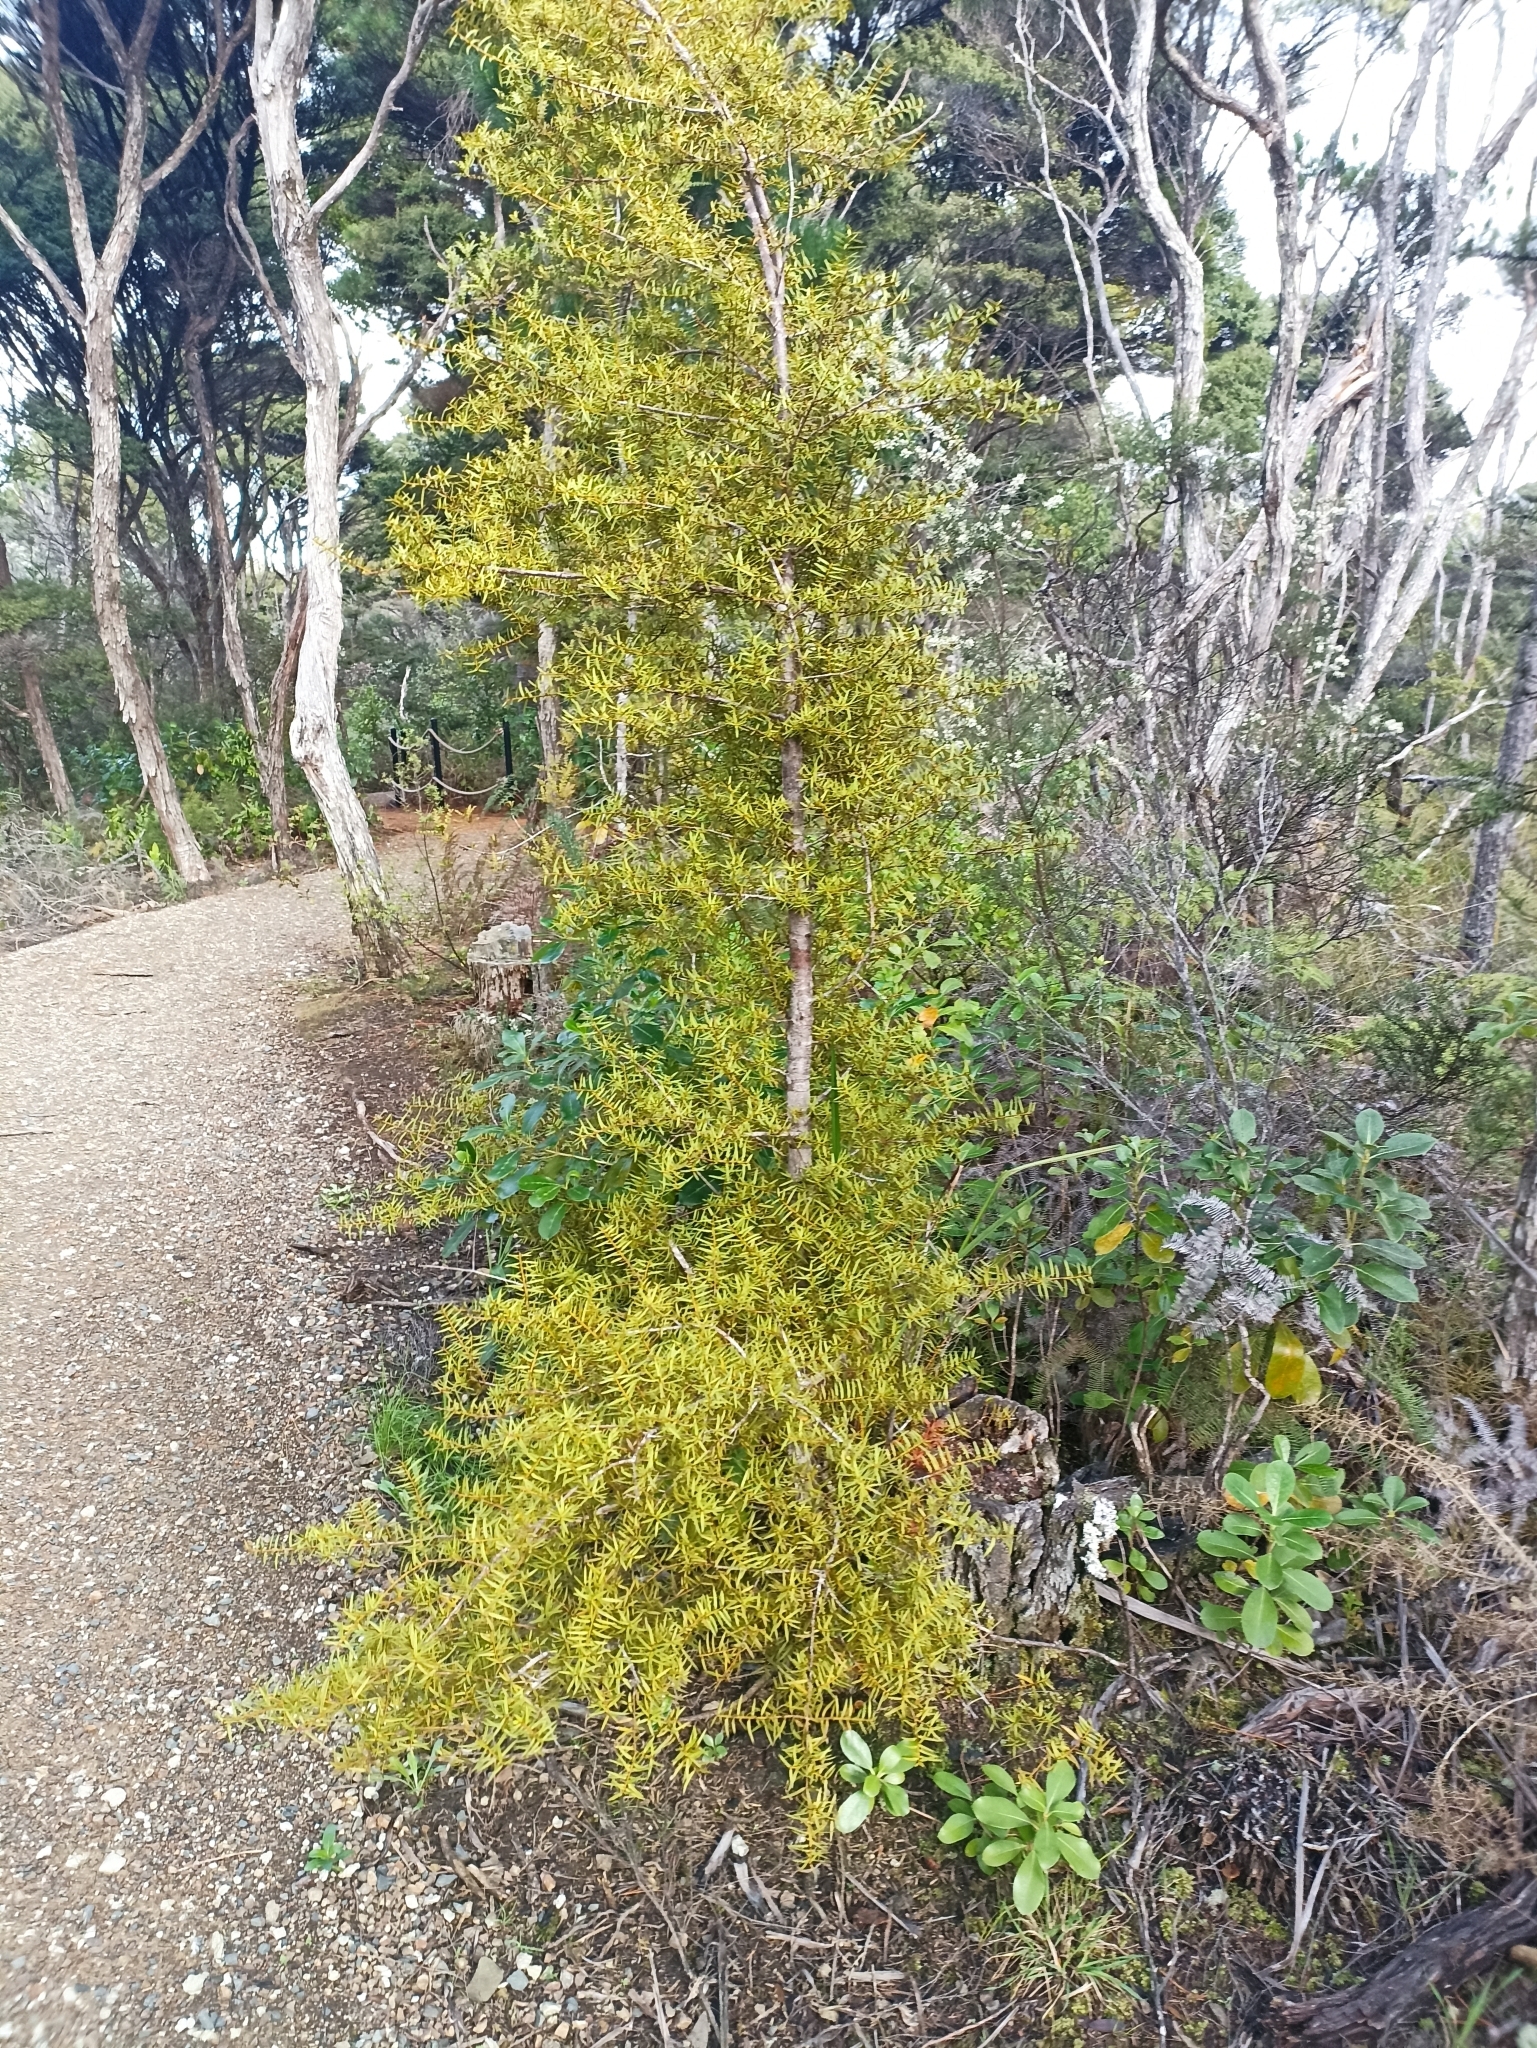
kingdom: Plantae
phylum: Tracheophyta
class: Pinopsida
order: Pinales
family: Podocarpaceae
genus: Podocarpus
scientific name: Podocarpus totara
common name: Totara
